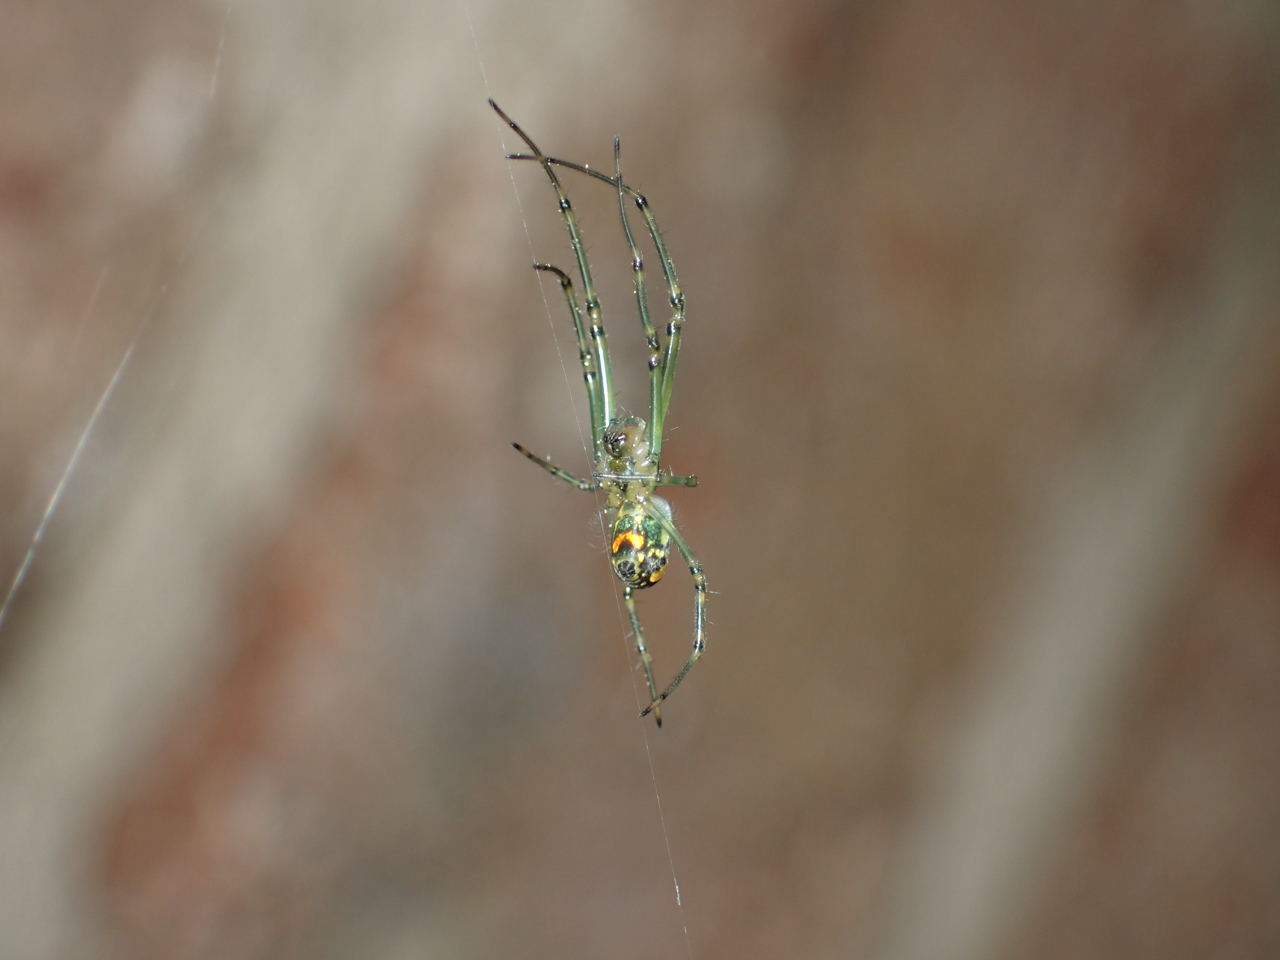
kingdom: Animalia
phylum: Arthropoda
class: Arachnida
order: Araneae
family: Tetragnathidae
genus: Leucauge
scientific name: Leucauge venusta
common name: Longjawed orb weavers
